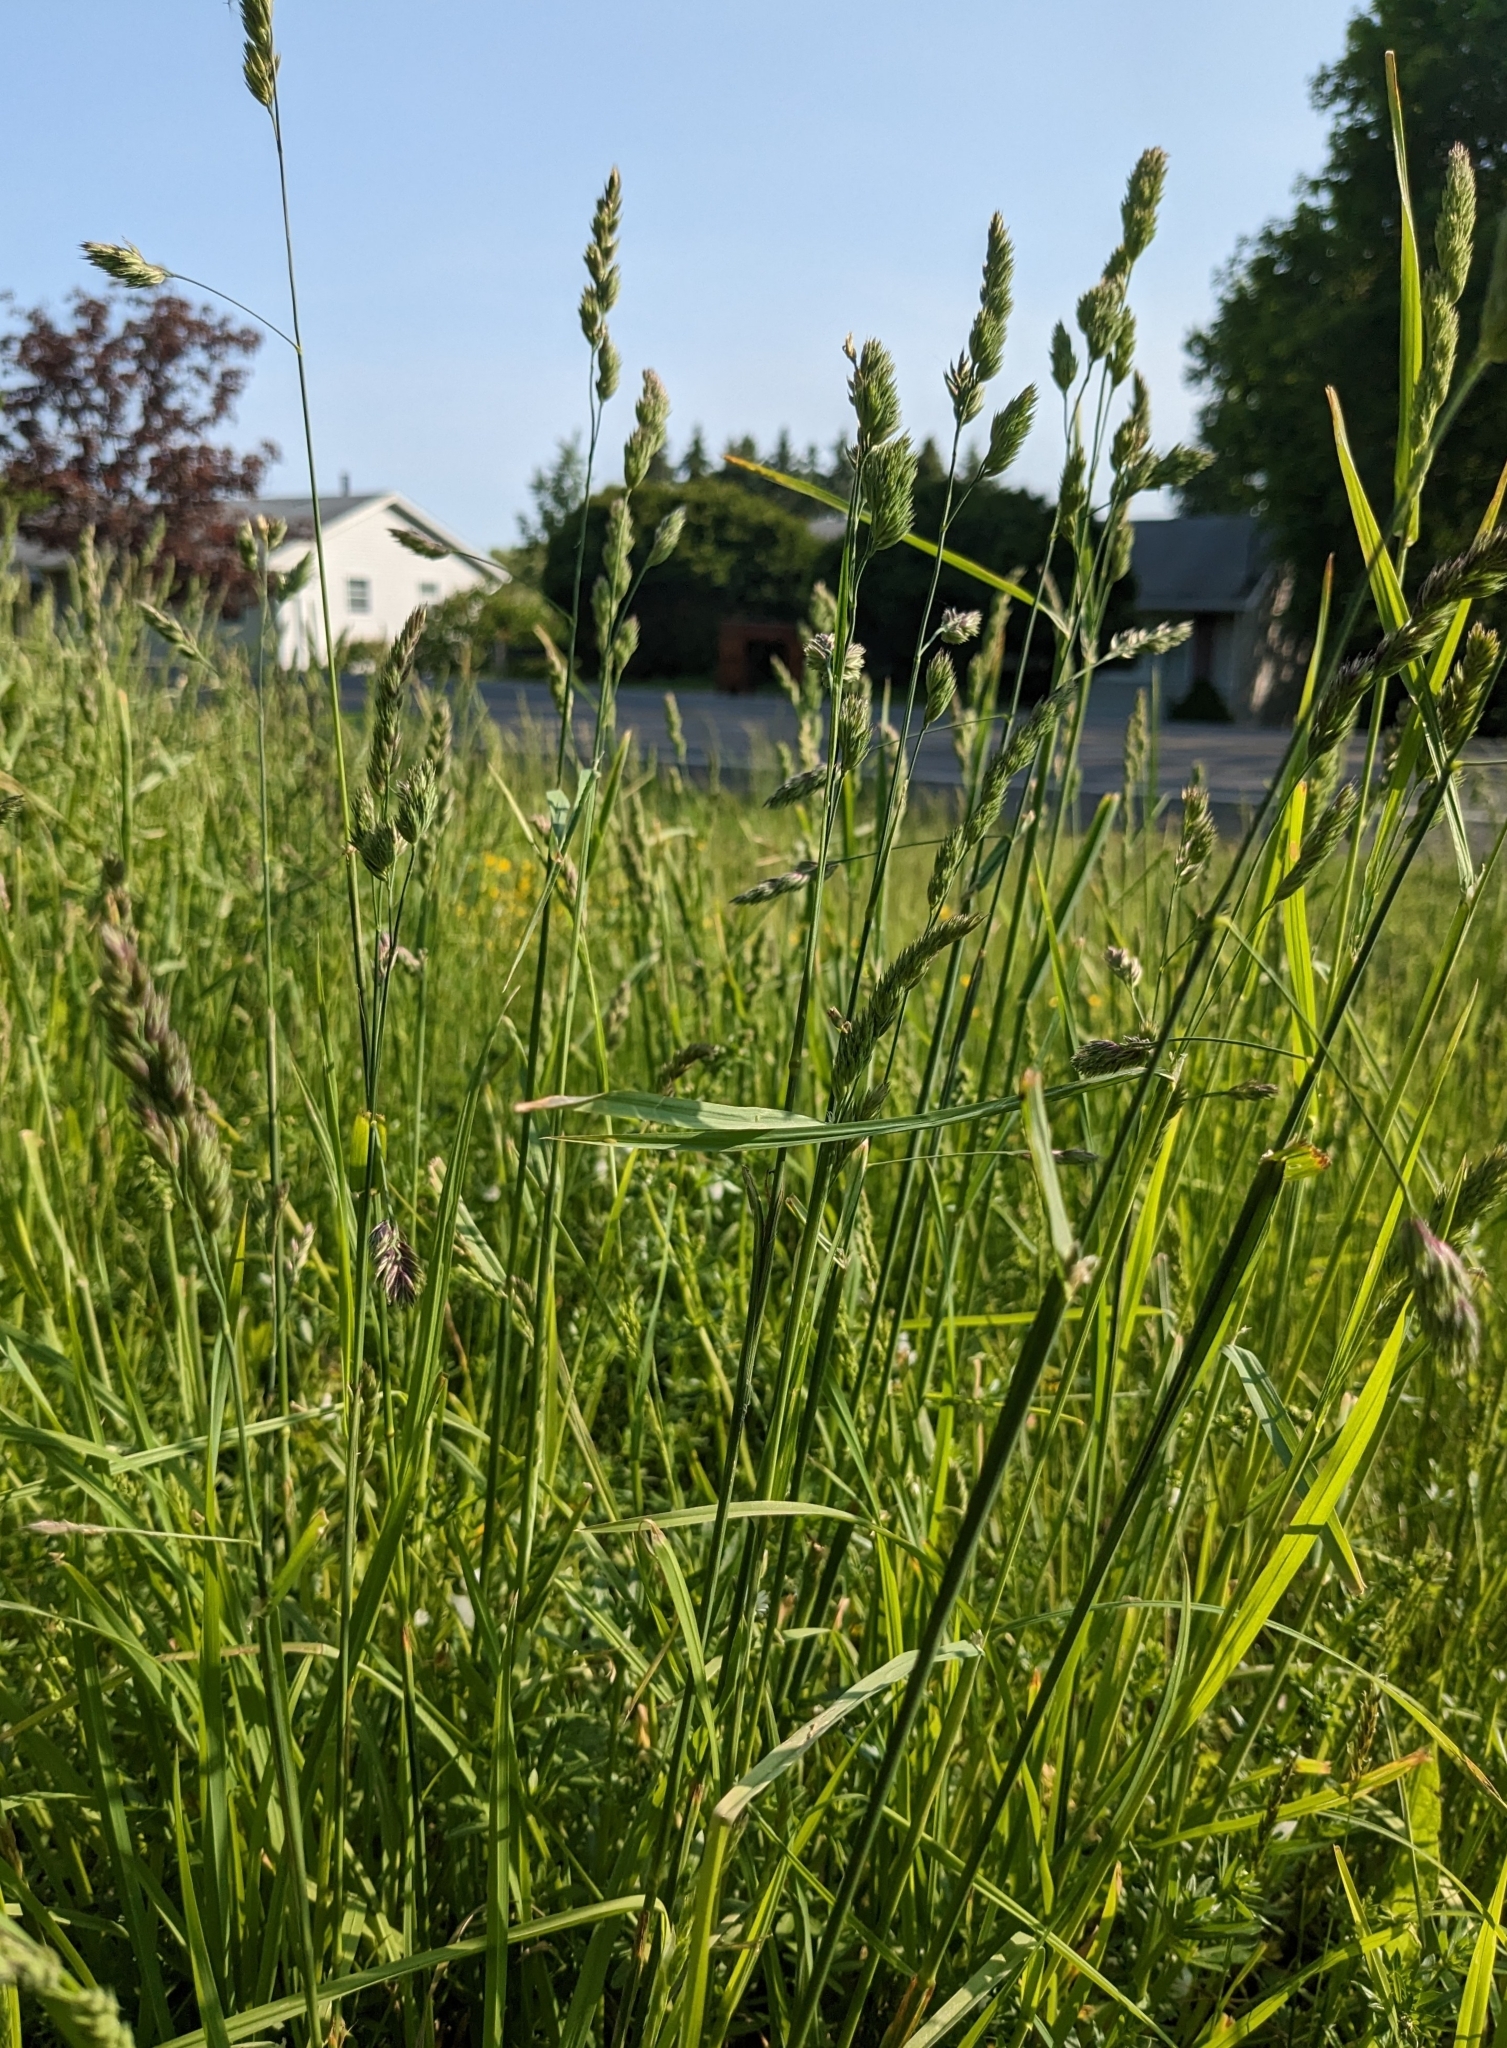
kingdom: Plantae
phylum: Tracheophyta
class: Liliopsida
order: Poales
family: Poaceae
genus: Dactylis
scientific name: Dactylis glomerata
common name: Orchardgrass
